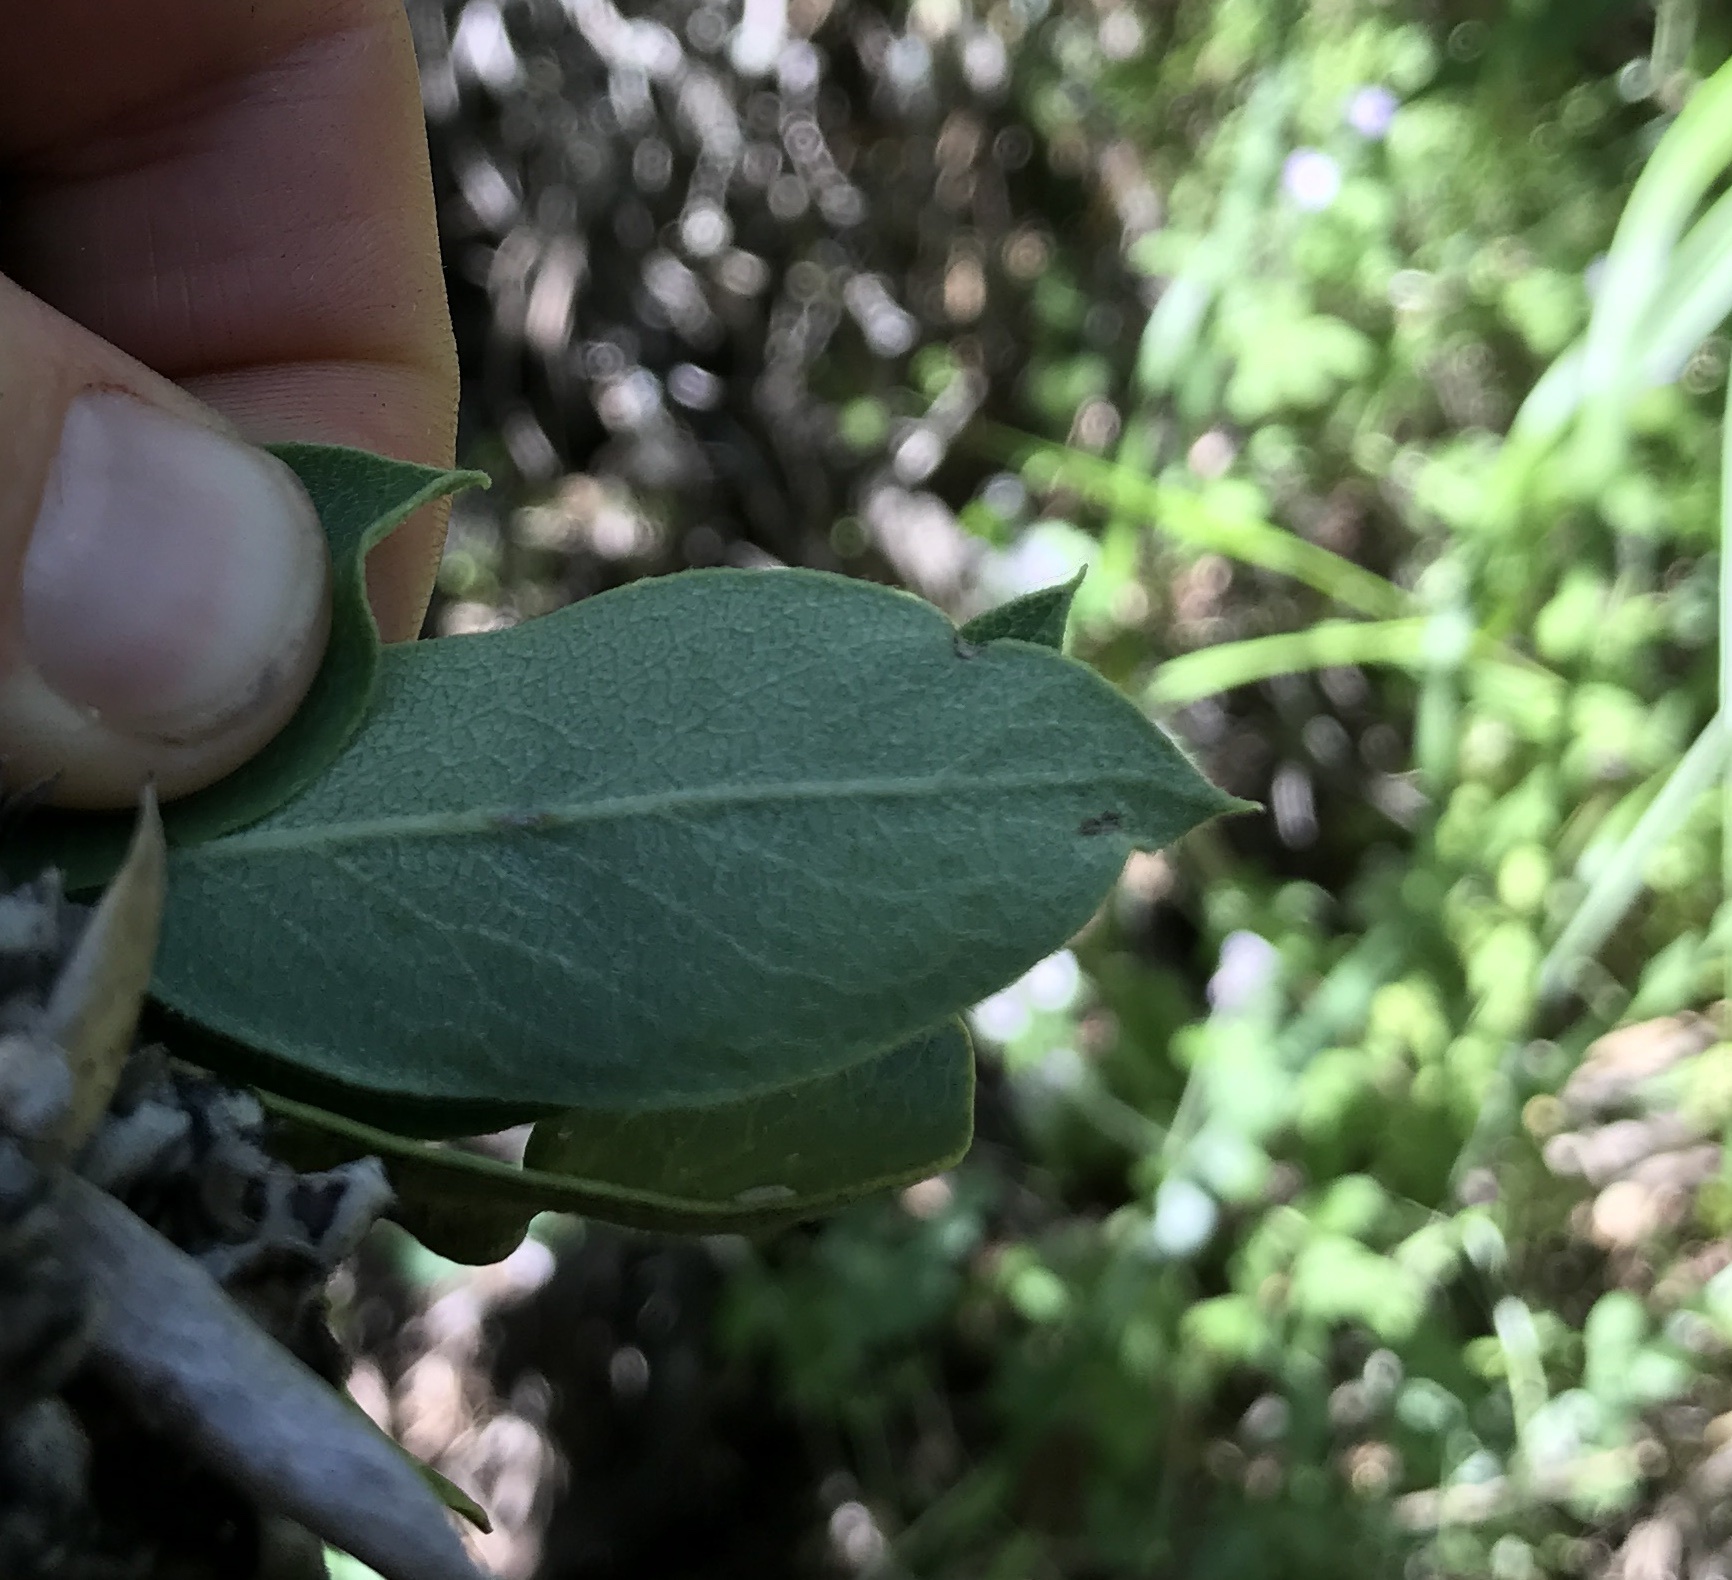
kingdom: Plantae
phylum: Tracheophyta
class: Magnoliopsida
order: Garryales
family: Garryaceae
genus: Garrya
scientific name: Garrya flavescens
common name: Ashy silk-tassel
